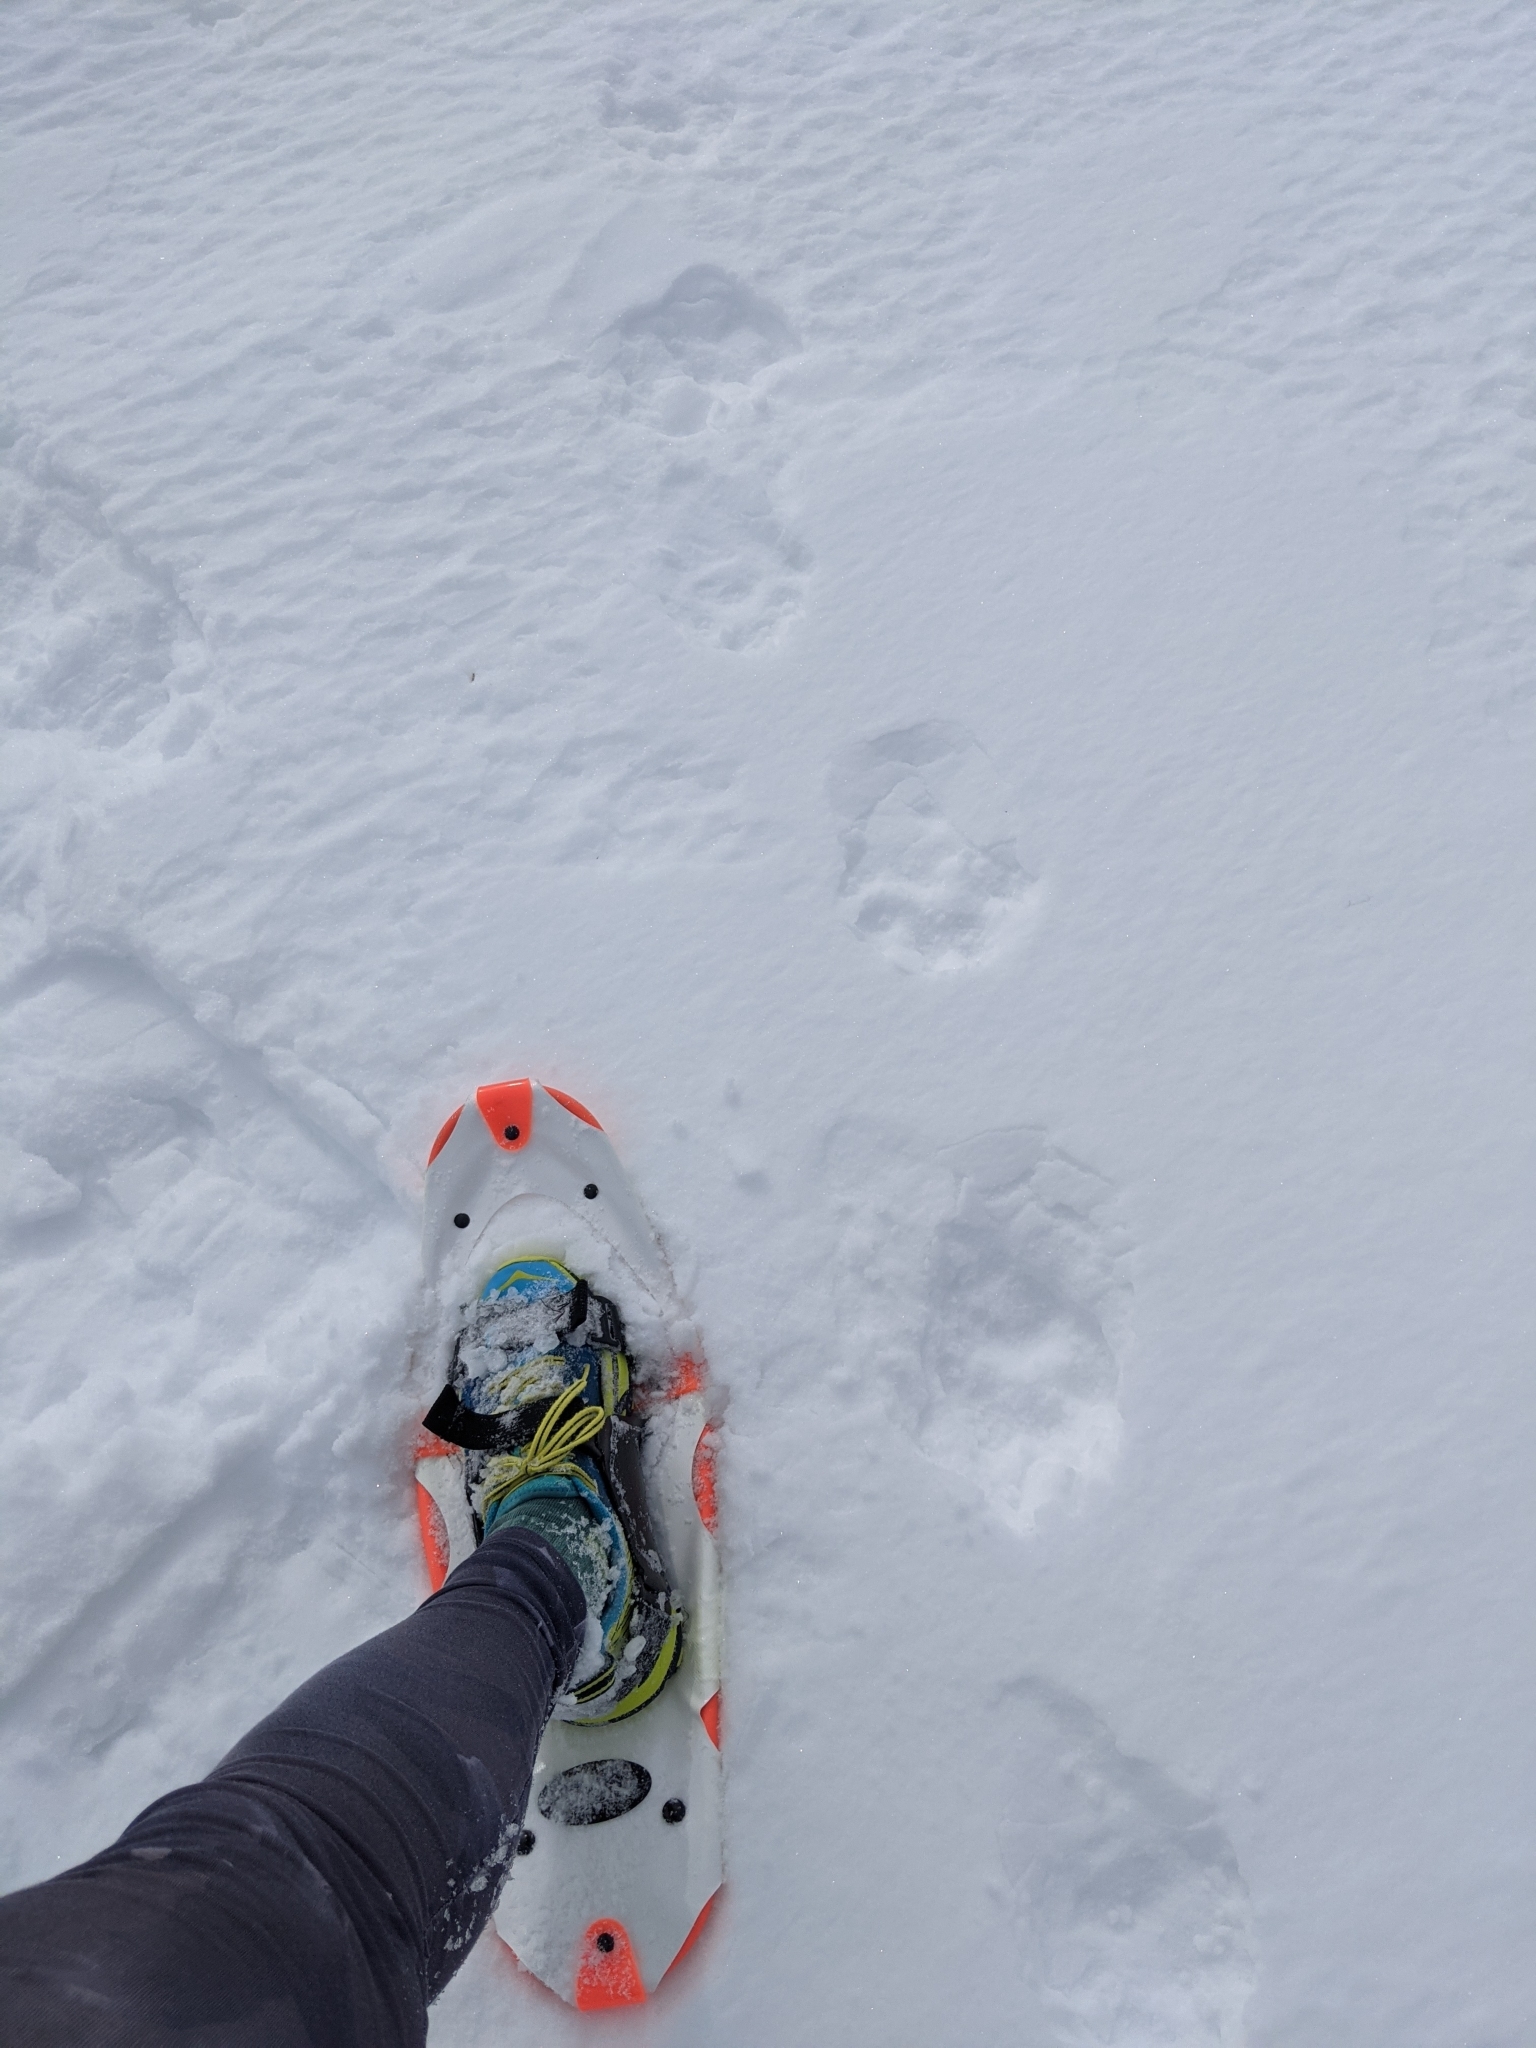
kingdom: Animalia
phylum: Chordata
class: Mammalia
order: Carnivora
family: Mustelidae
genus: Gulo
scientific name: Gulo gulo
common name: Wolverine
